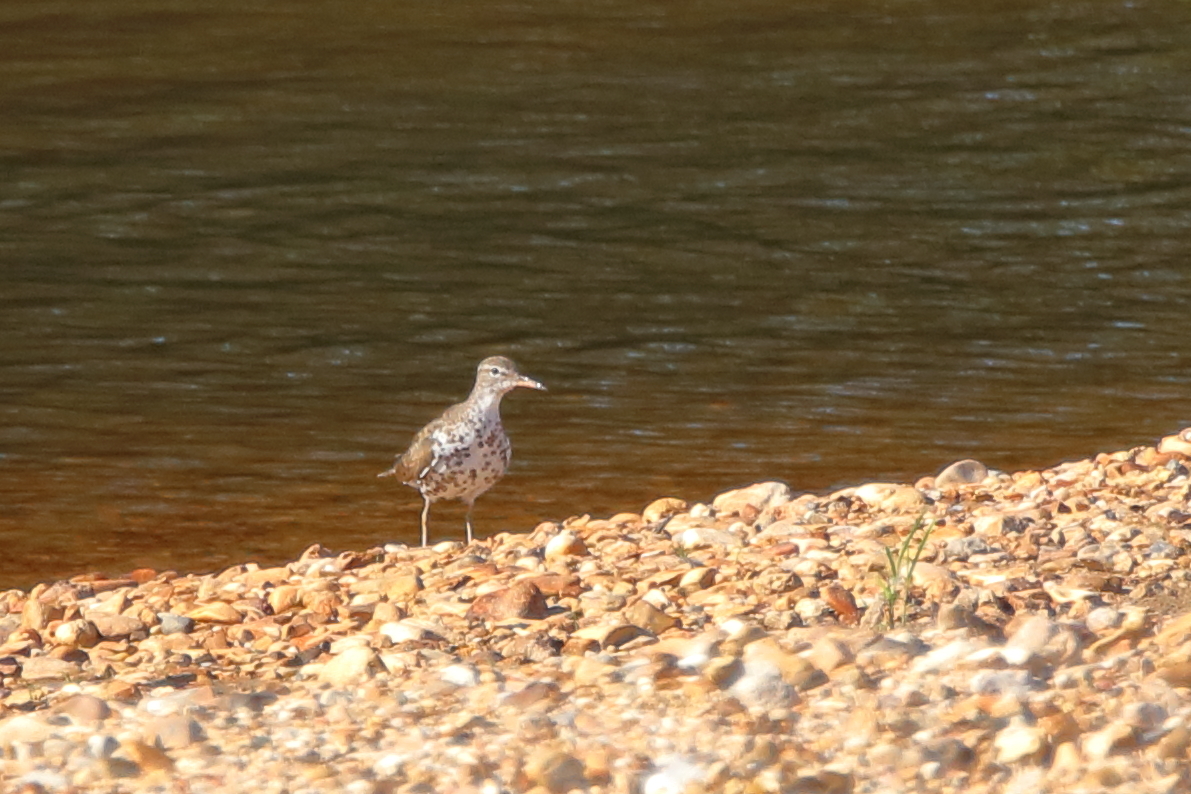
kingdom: Animalia
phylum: Chordata
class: Aves
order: Charadriiformes
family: Scolopacidae
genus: Actitis
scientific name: Actitis macularius
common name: Spotted sandpiper
